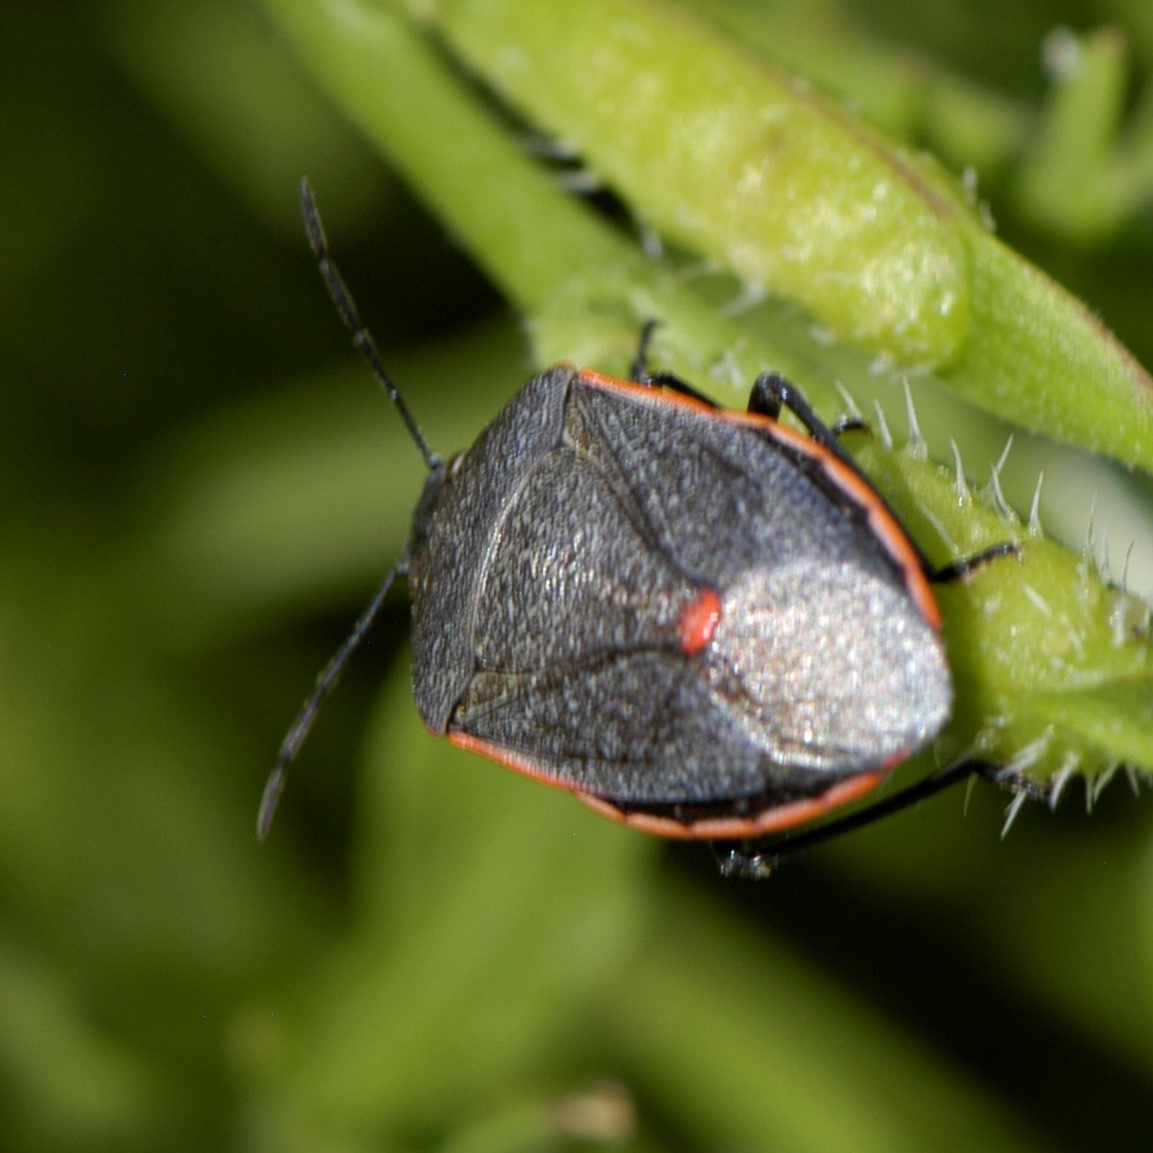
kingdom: Animalia
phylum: Arthropoda
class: Insecta
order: Hemiptera
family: Pentatomidae
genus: Chlorochroa
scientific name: Chlorochroa ligata
